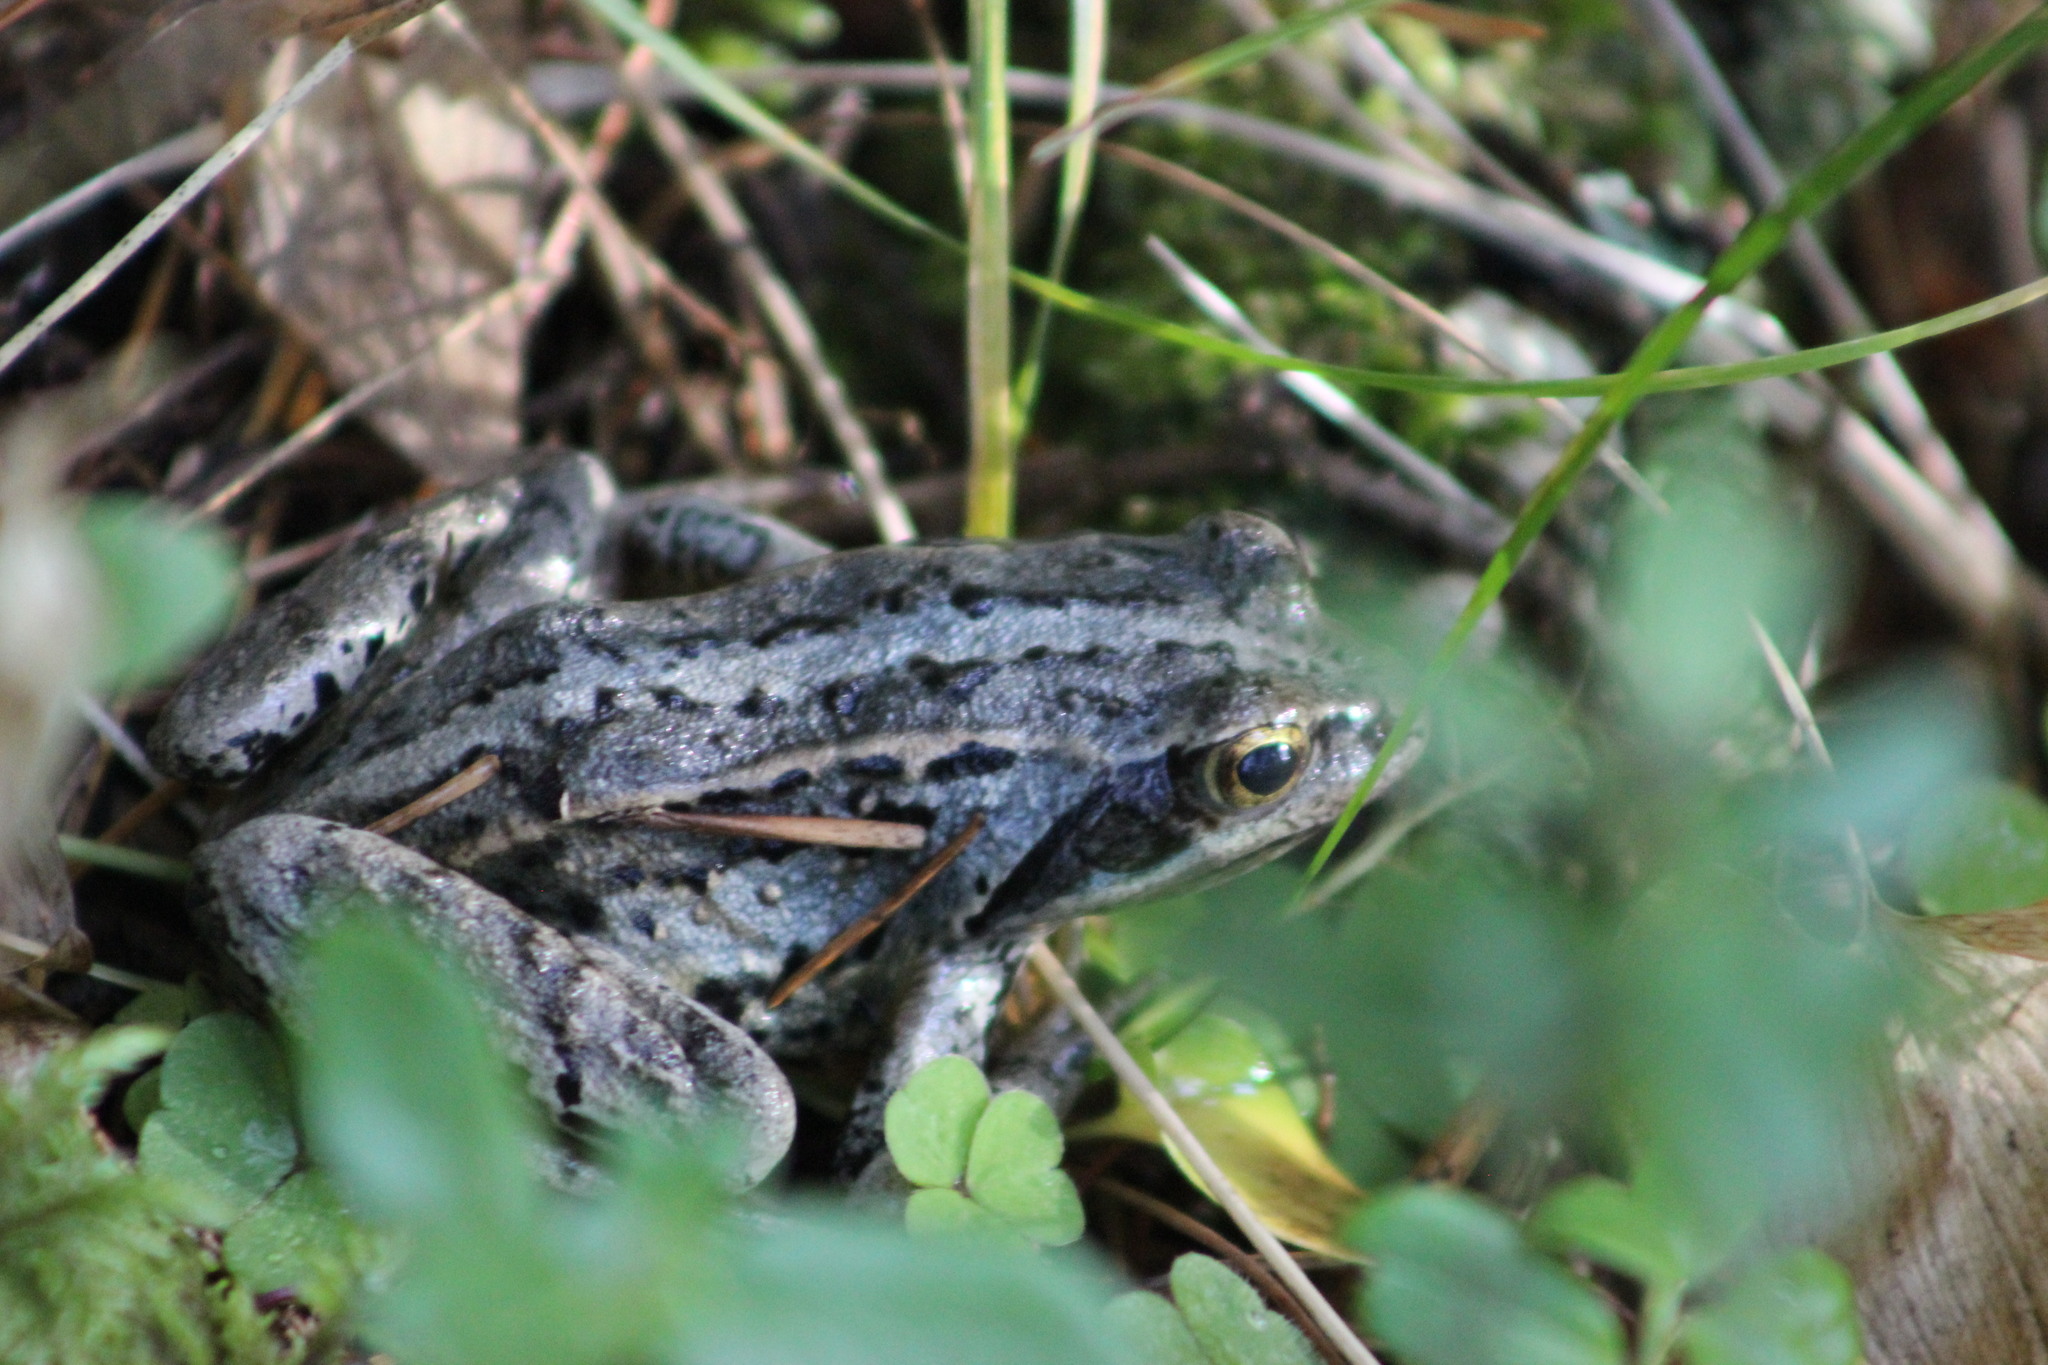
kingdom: Animalia
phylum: Chordata
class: Amphibia
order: Anura
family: Ranidae
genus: Rana
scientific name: Rana arvalis
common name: Moor frog
